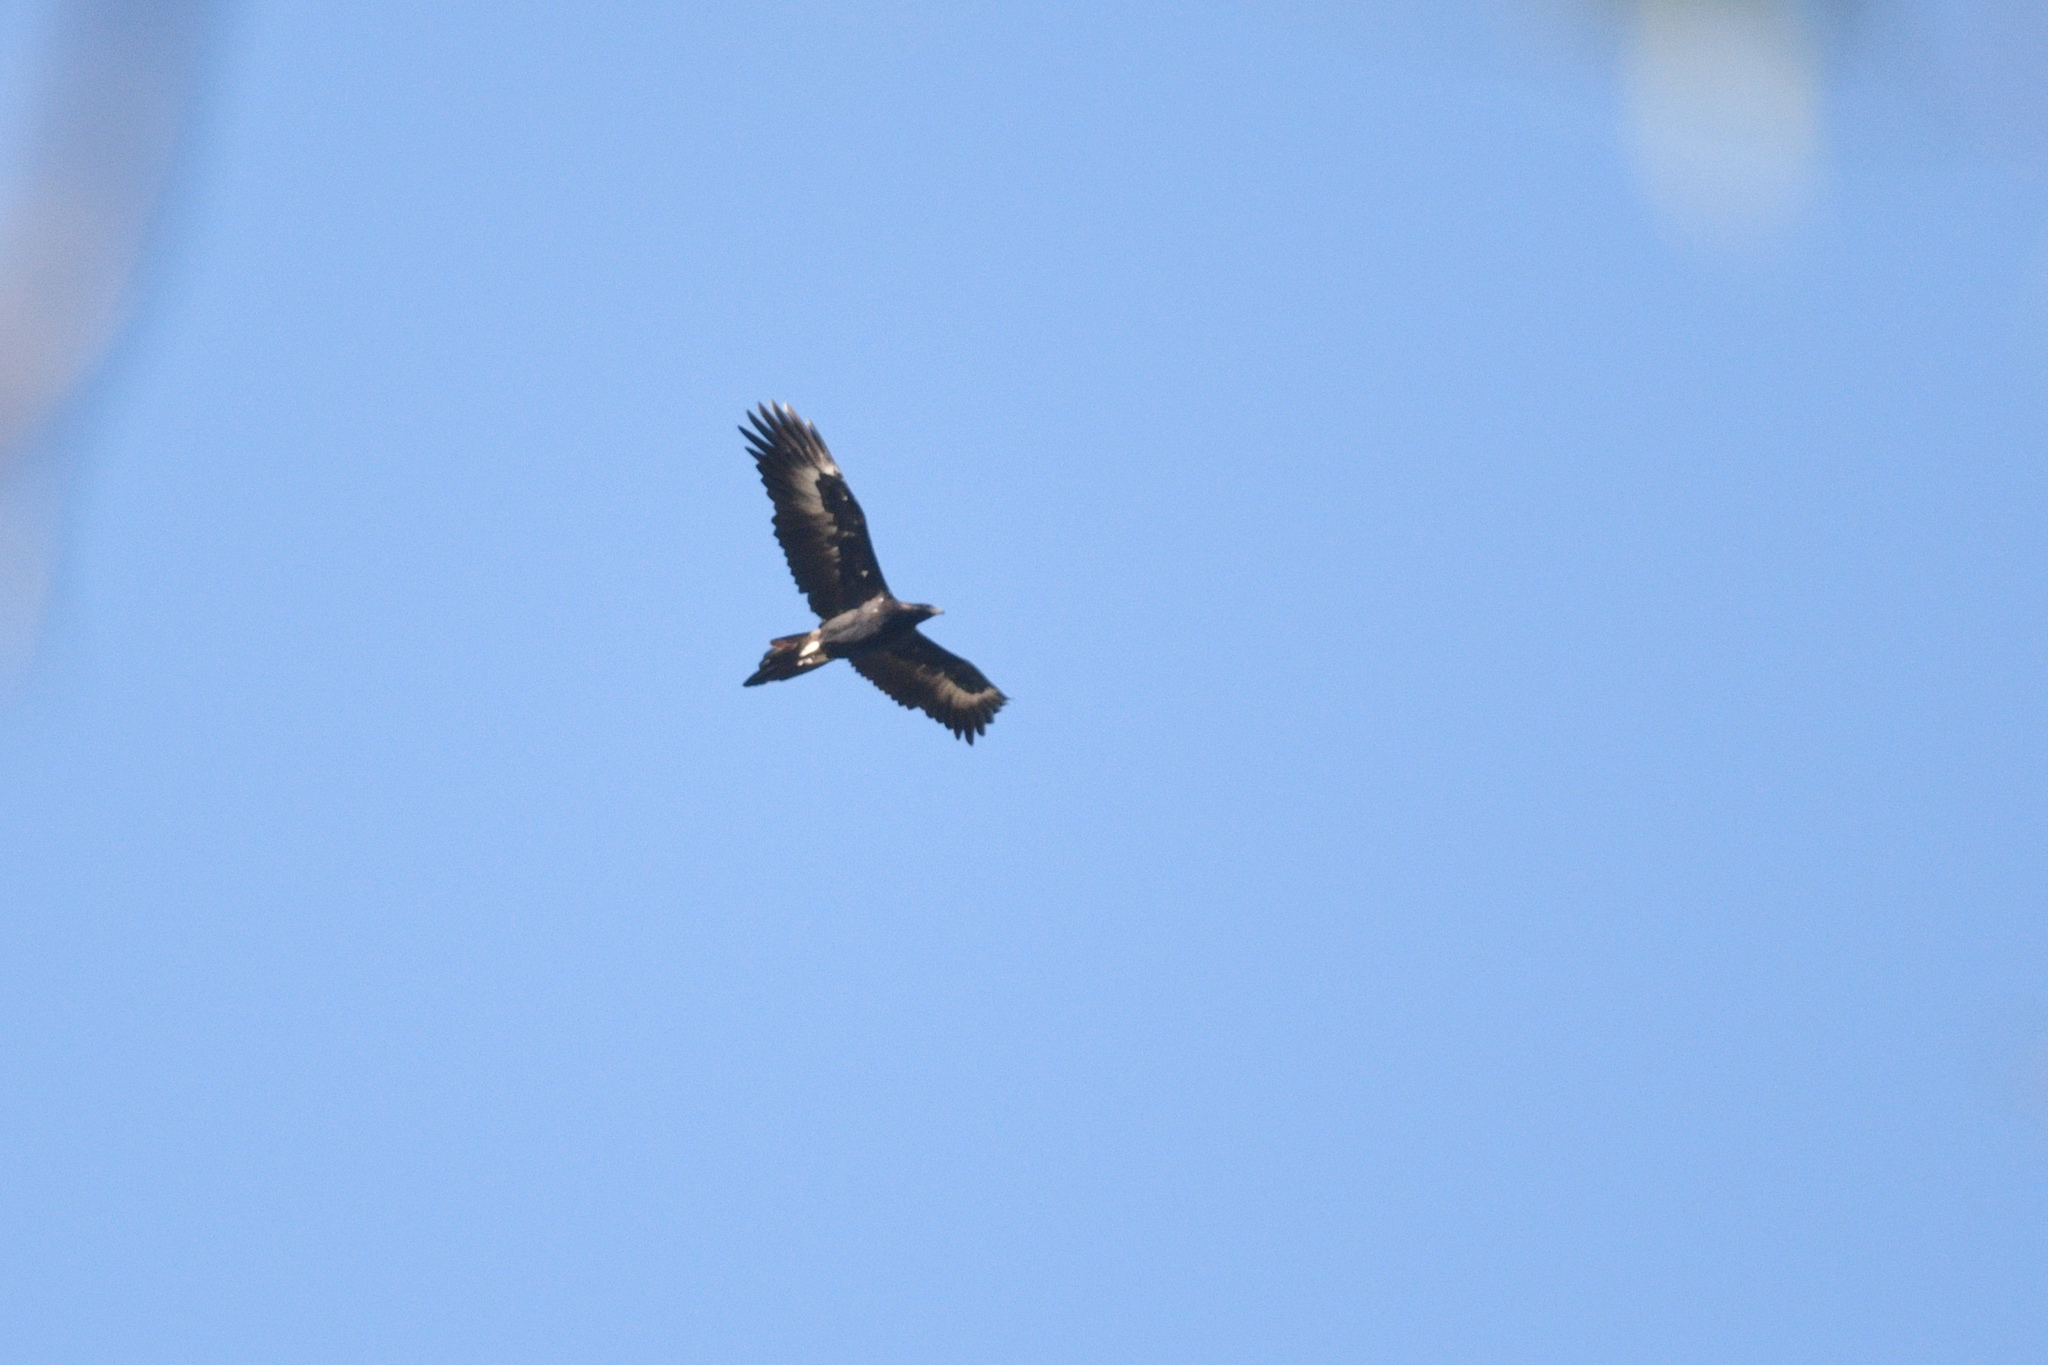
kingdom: Animalia
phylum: Chordata
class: Aves
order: Accipitriformes
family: Accipitridae
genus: Aquila
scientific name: Aquila audax
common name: Wedge-tailed eagle
